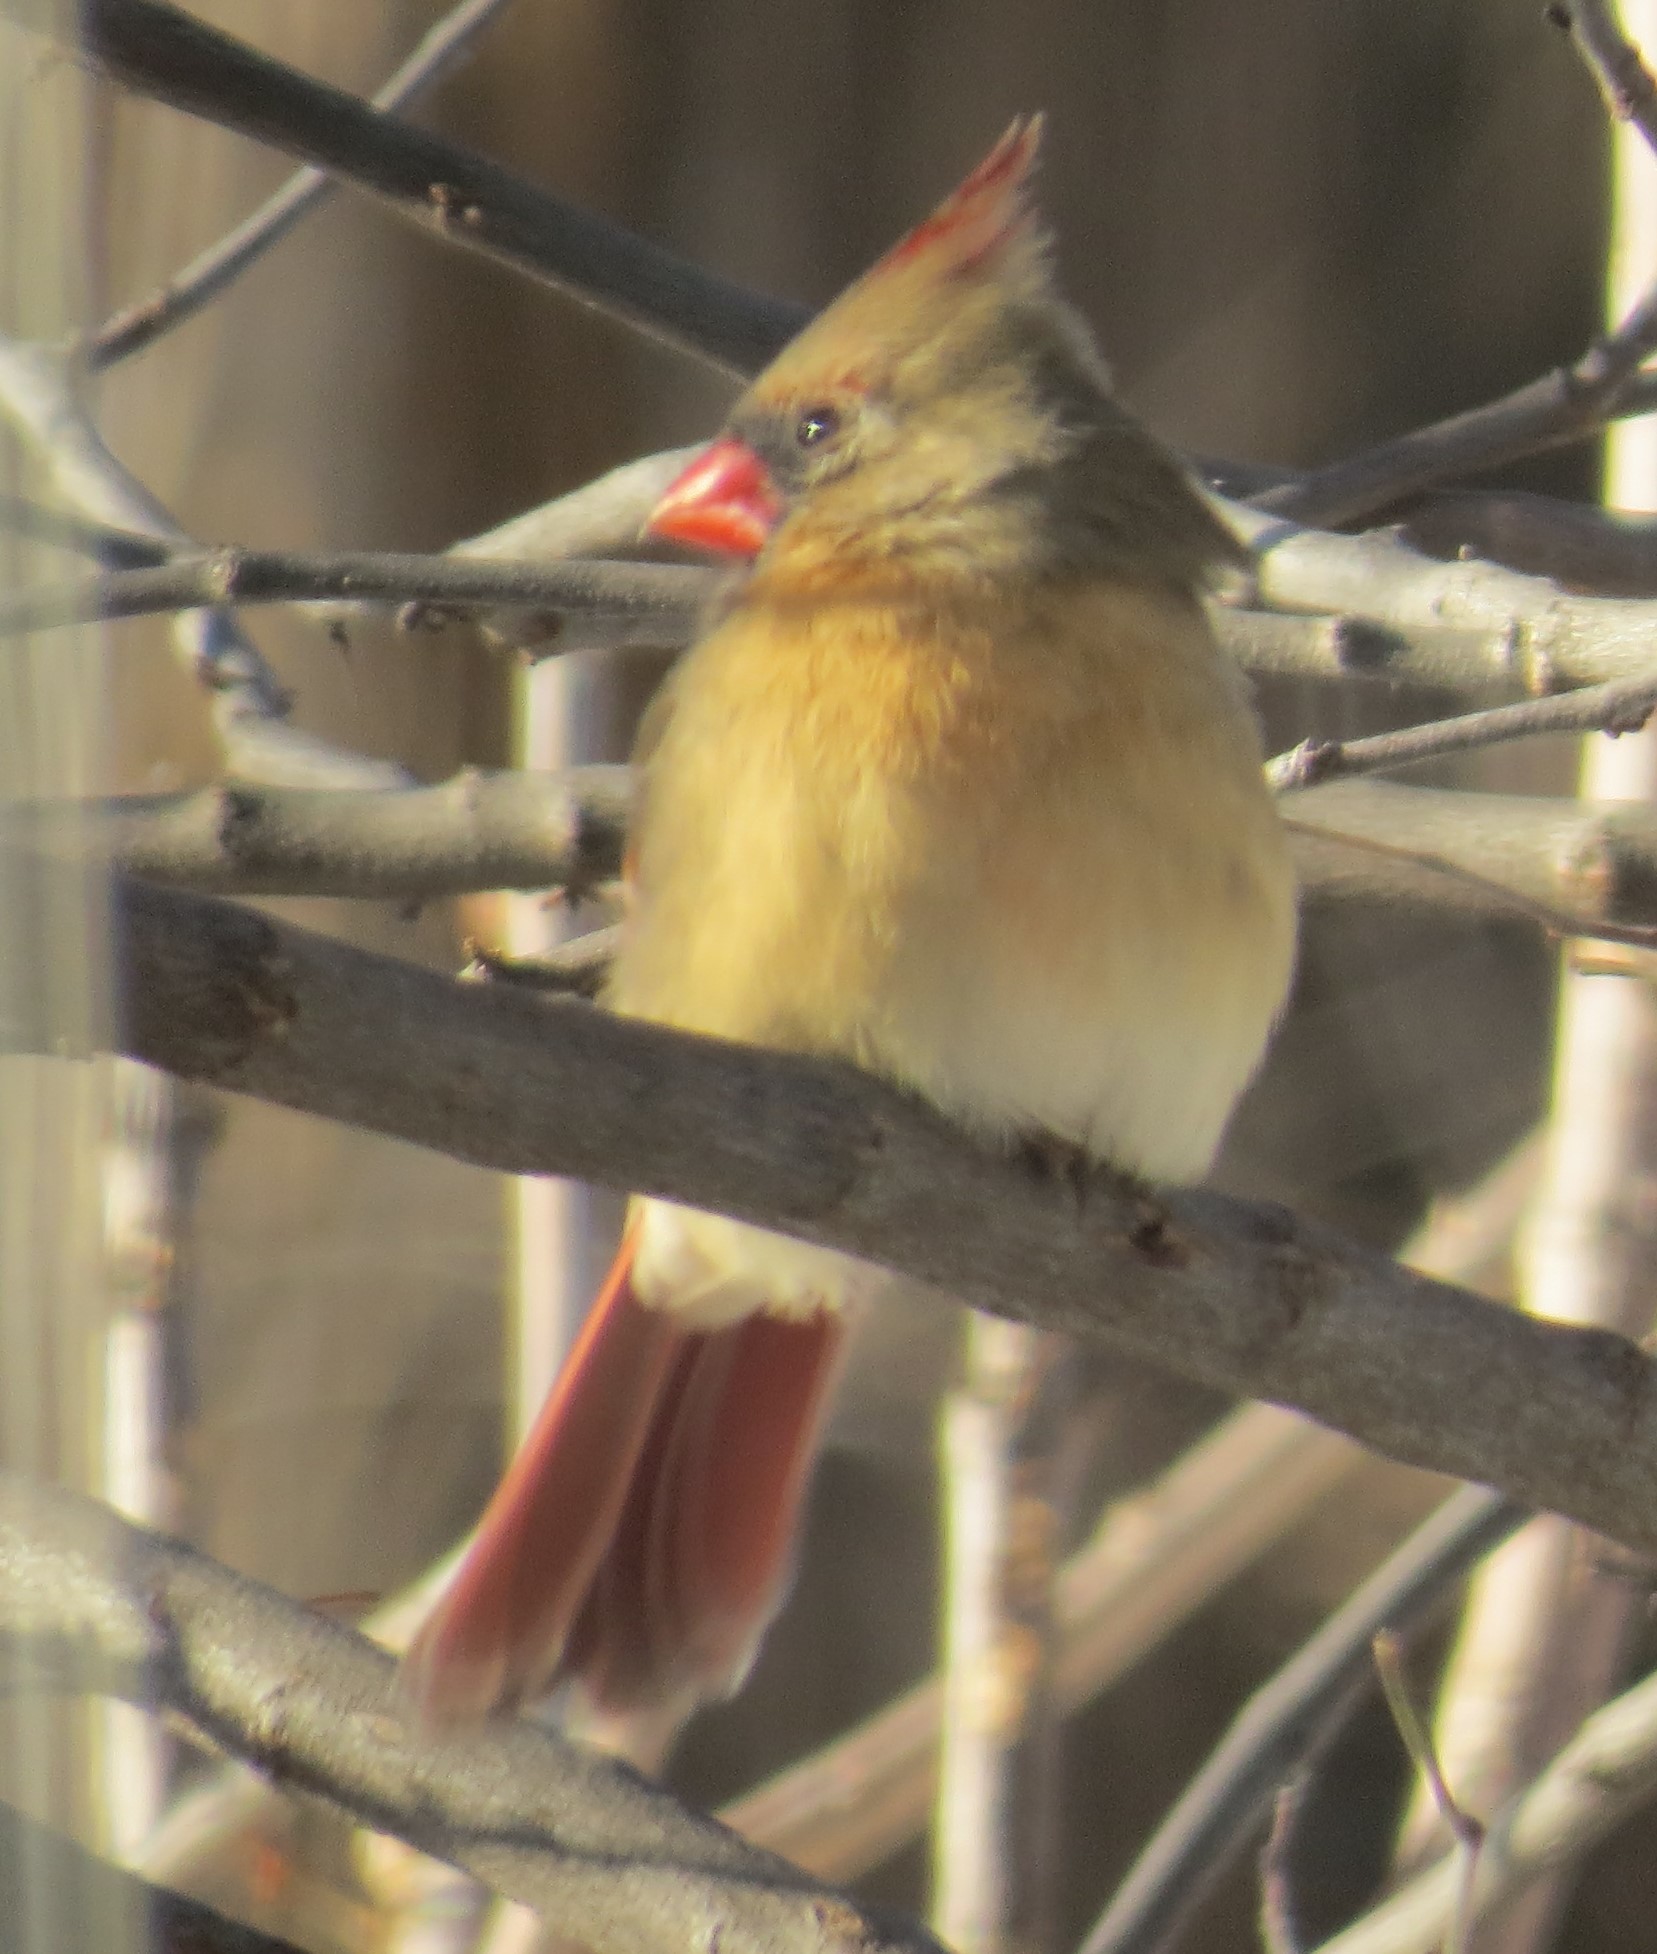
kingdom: Animalia
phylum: Chordata
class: Aves
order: Passeriformes
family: Cardinalidae
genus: Cardinalis
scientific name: Cardinalis cardinalis
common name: Northern cardinal
